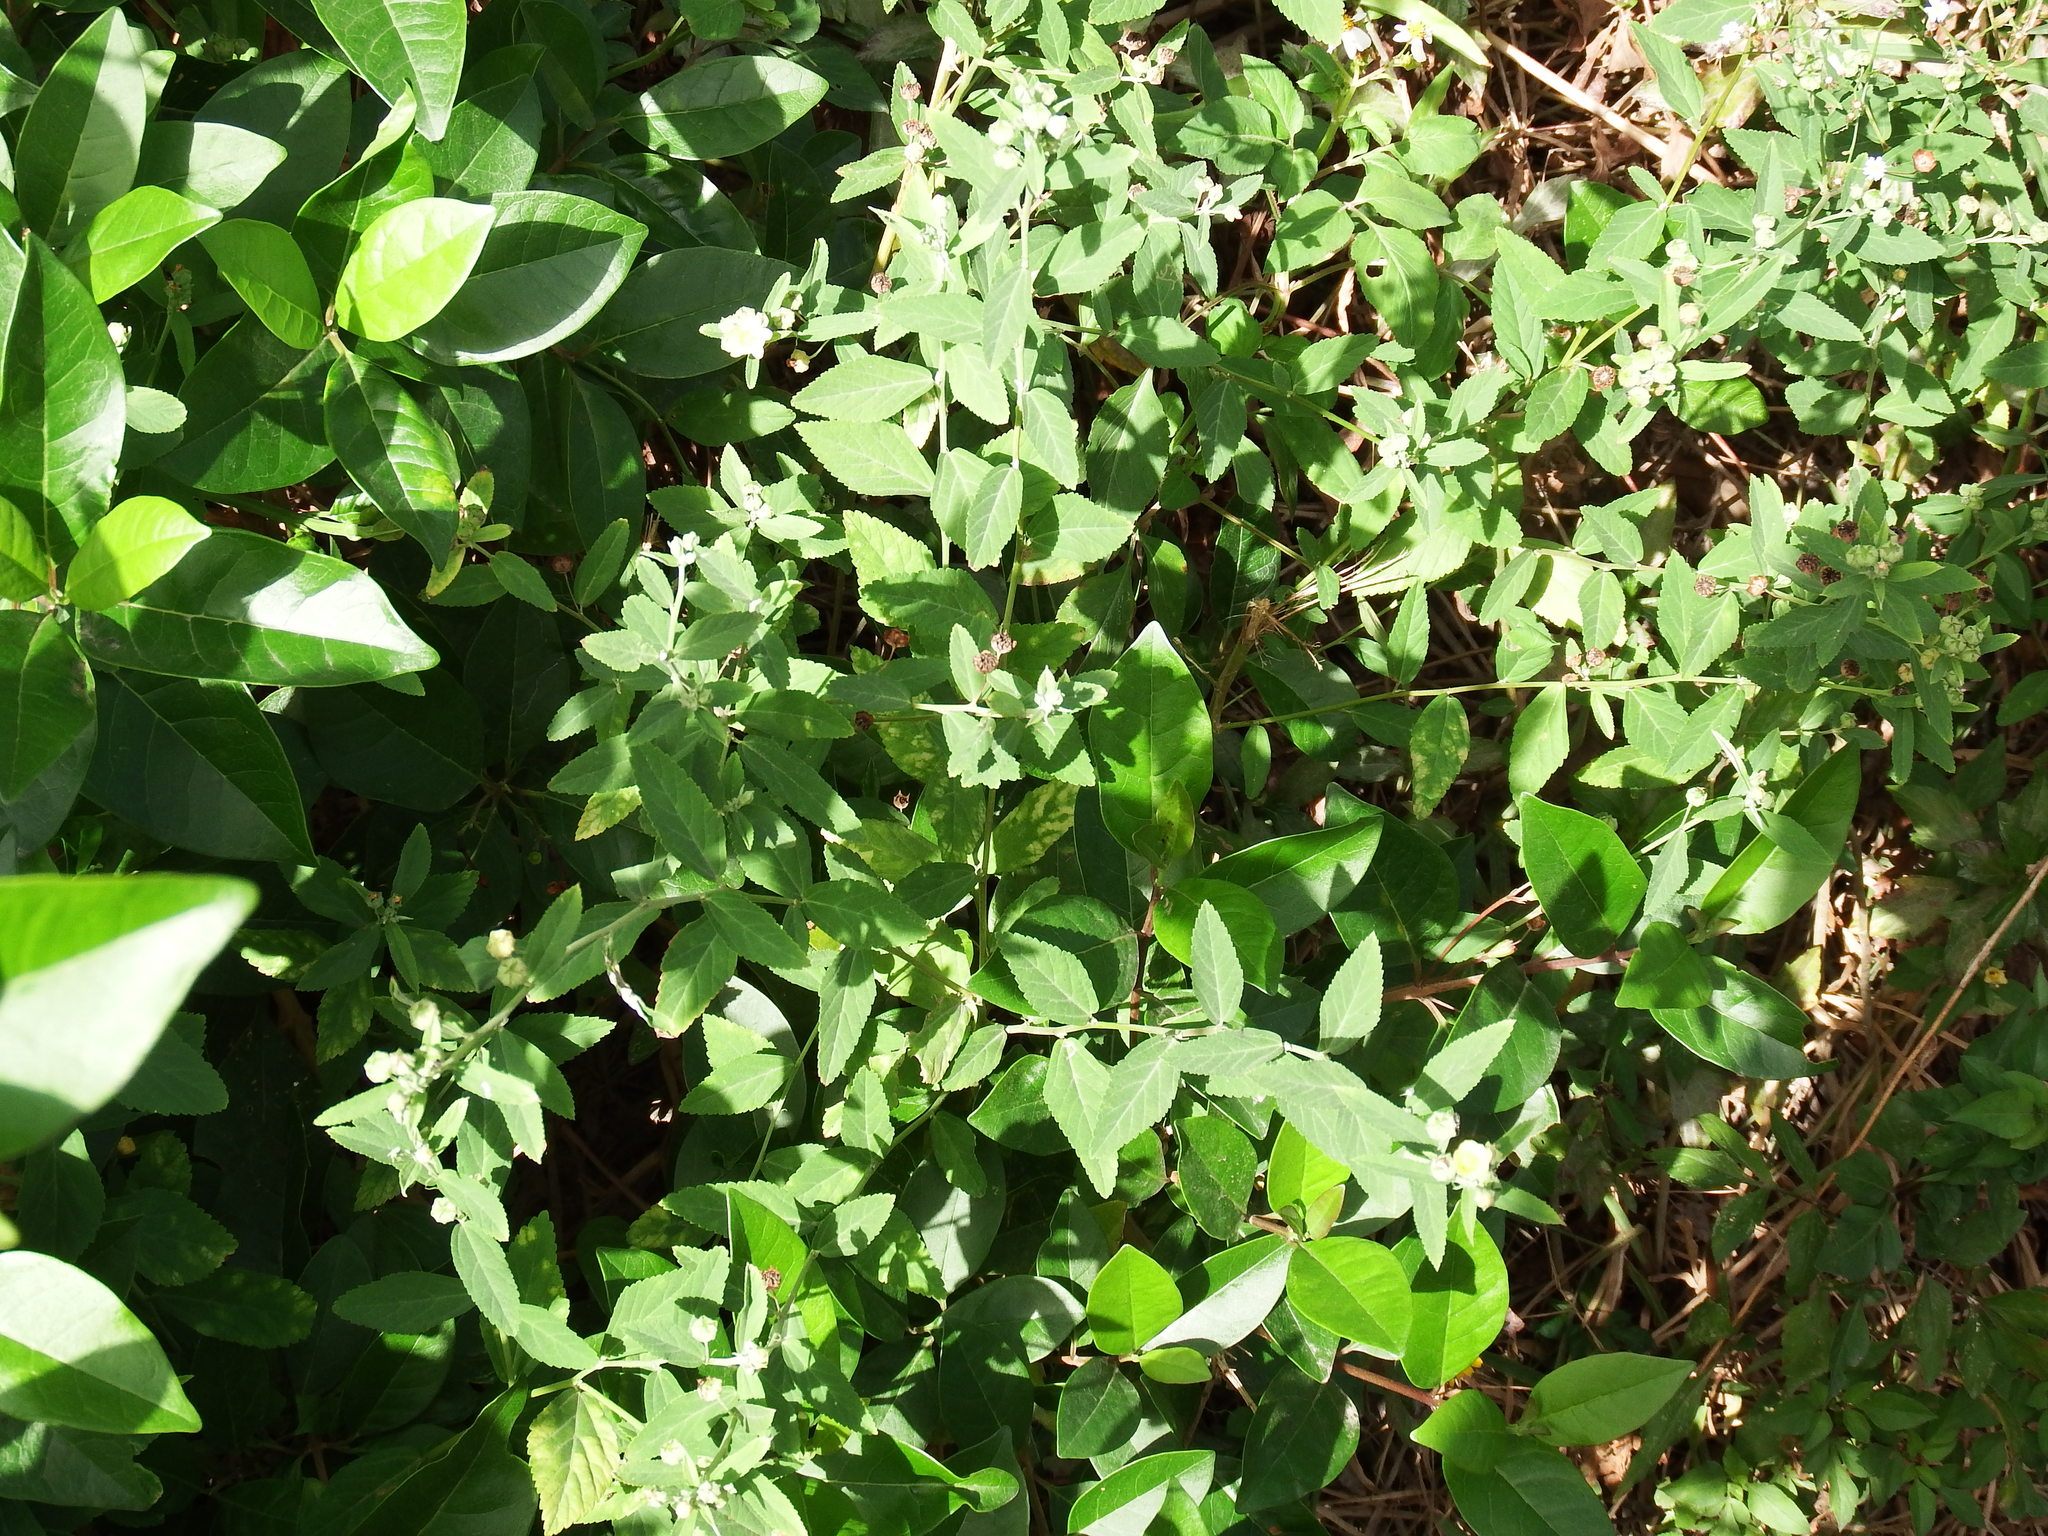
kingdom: Plantae
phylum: Tracheophyta
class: Magnoliopsida
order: Malvales
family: Malvaceae
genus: Sida
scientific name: Sida rhombifolia
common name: Queensland-hemp
